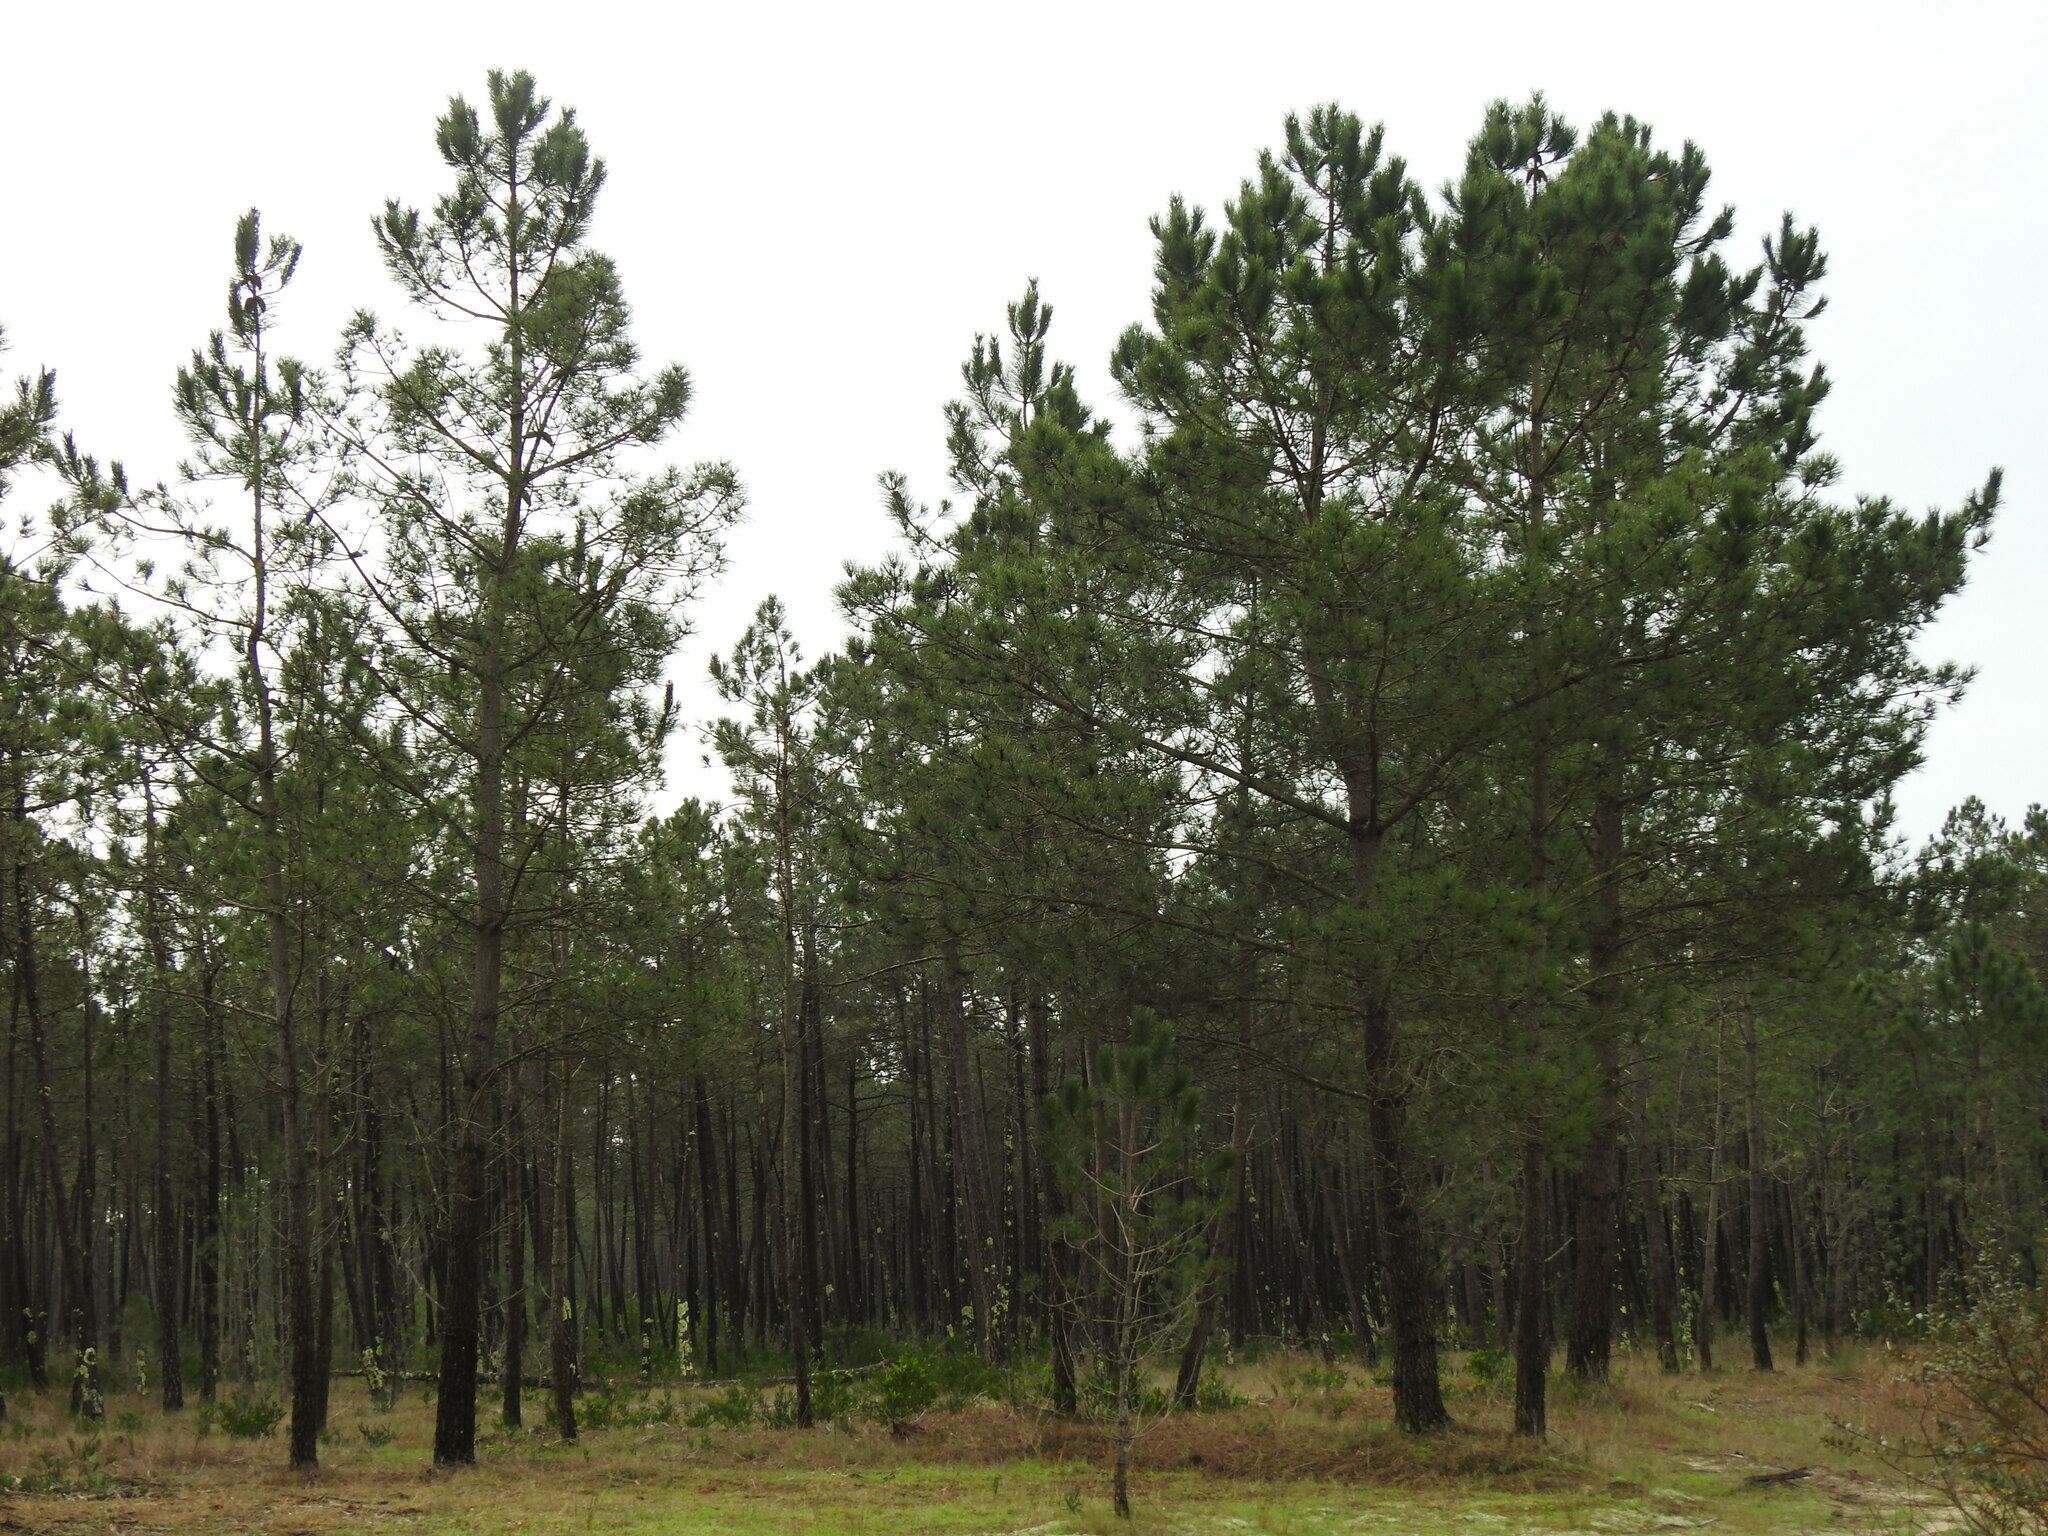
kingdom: Plantae
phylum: Tracheophyta
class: Pinopsida
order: Pinales
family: Pinaceae
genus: Pinus
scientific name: Pinus pinaster
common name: Maritime pine
